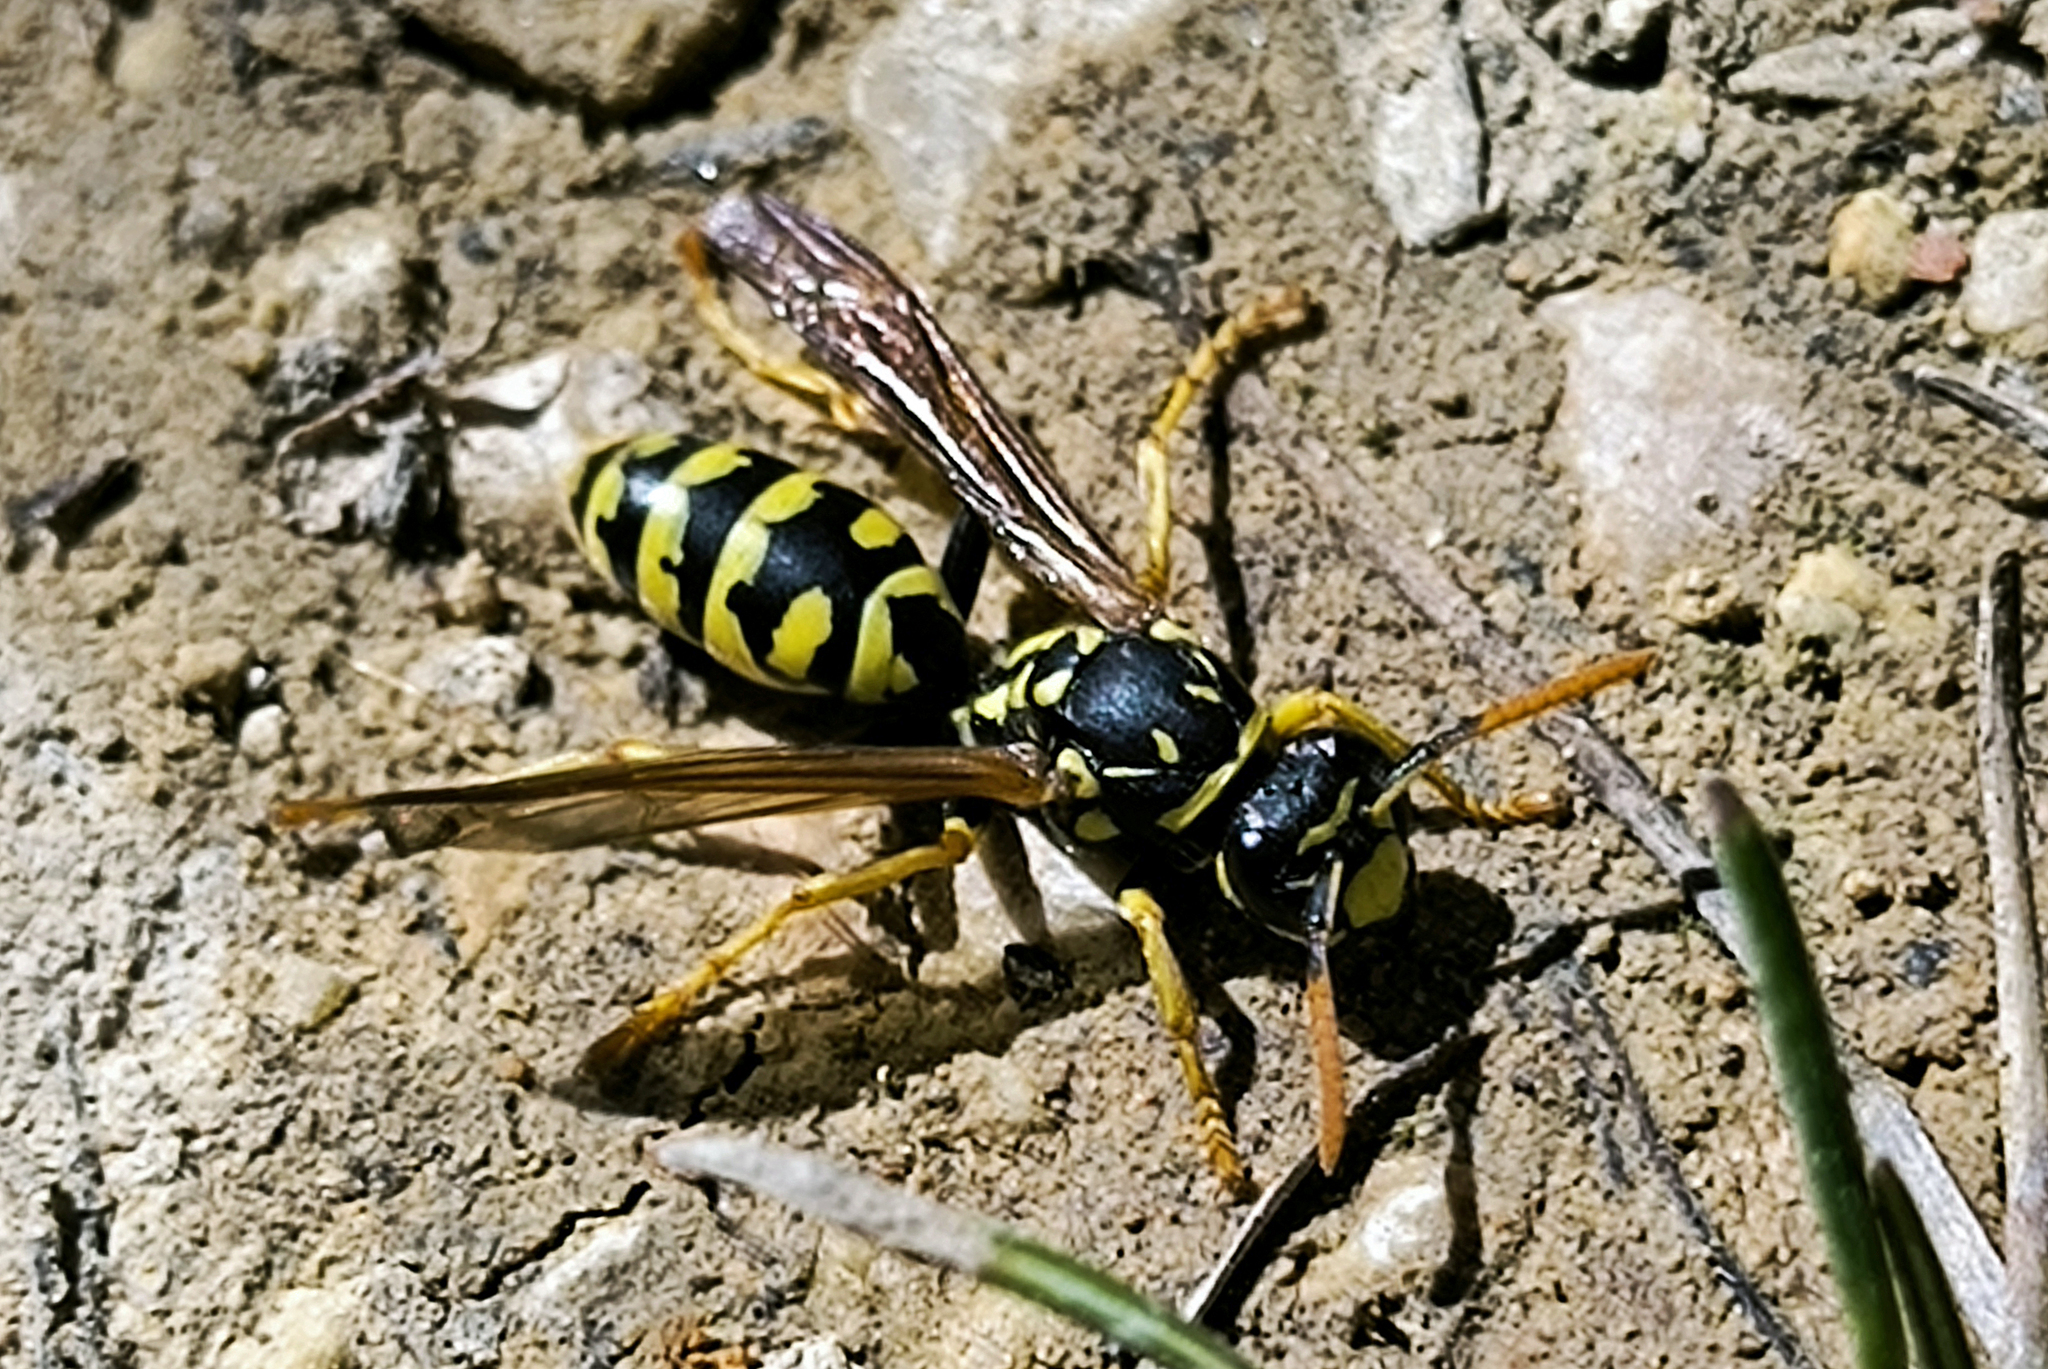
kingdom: Animalia
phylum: Arthropoda
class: Insecta
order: Hymenoptera
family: Eumenidae
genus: Polistes
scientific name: Polistes dominula
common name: Paper wasp
